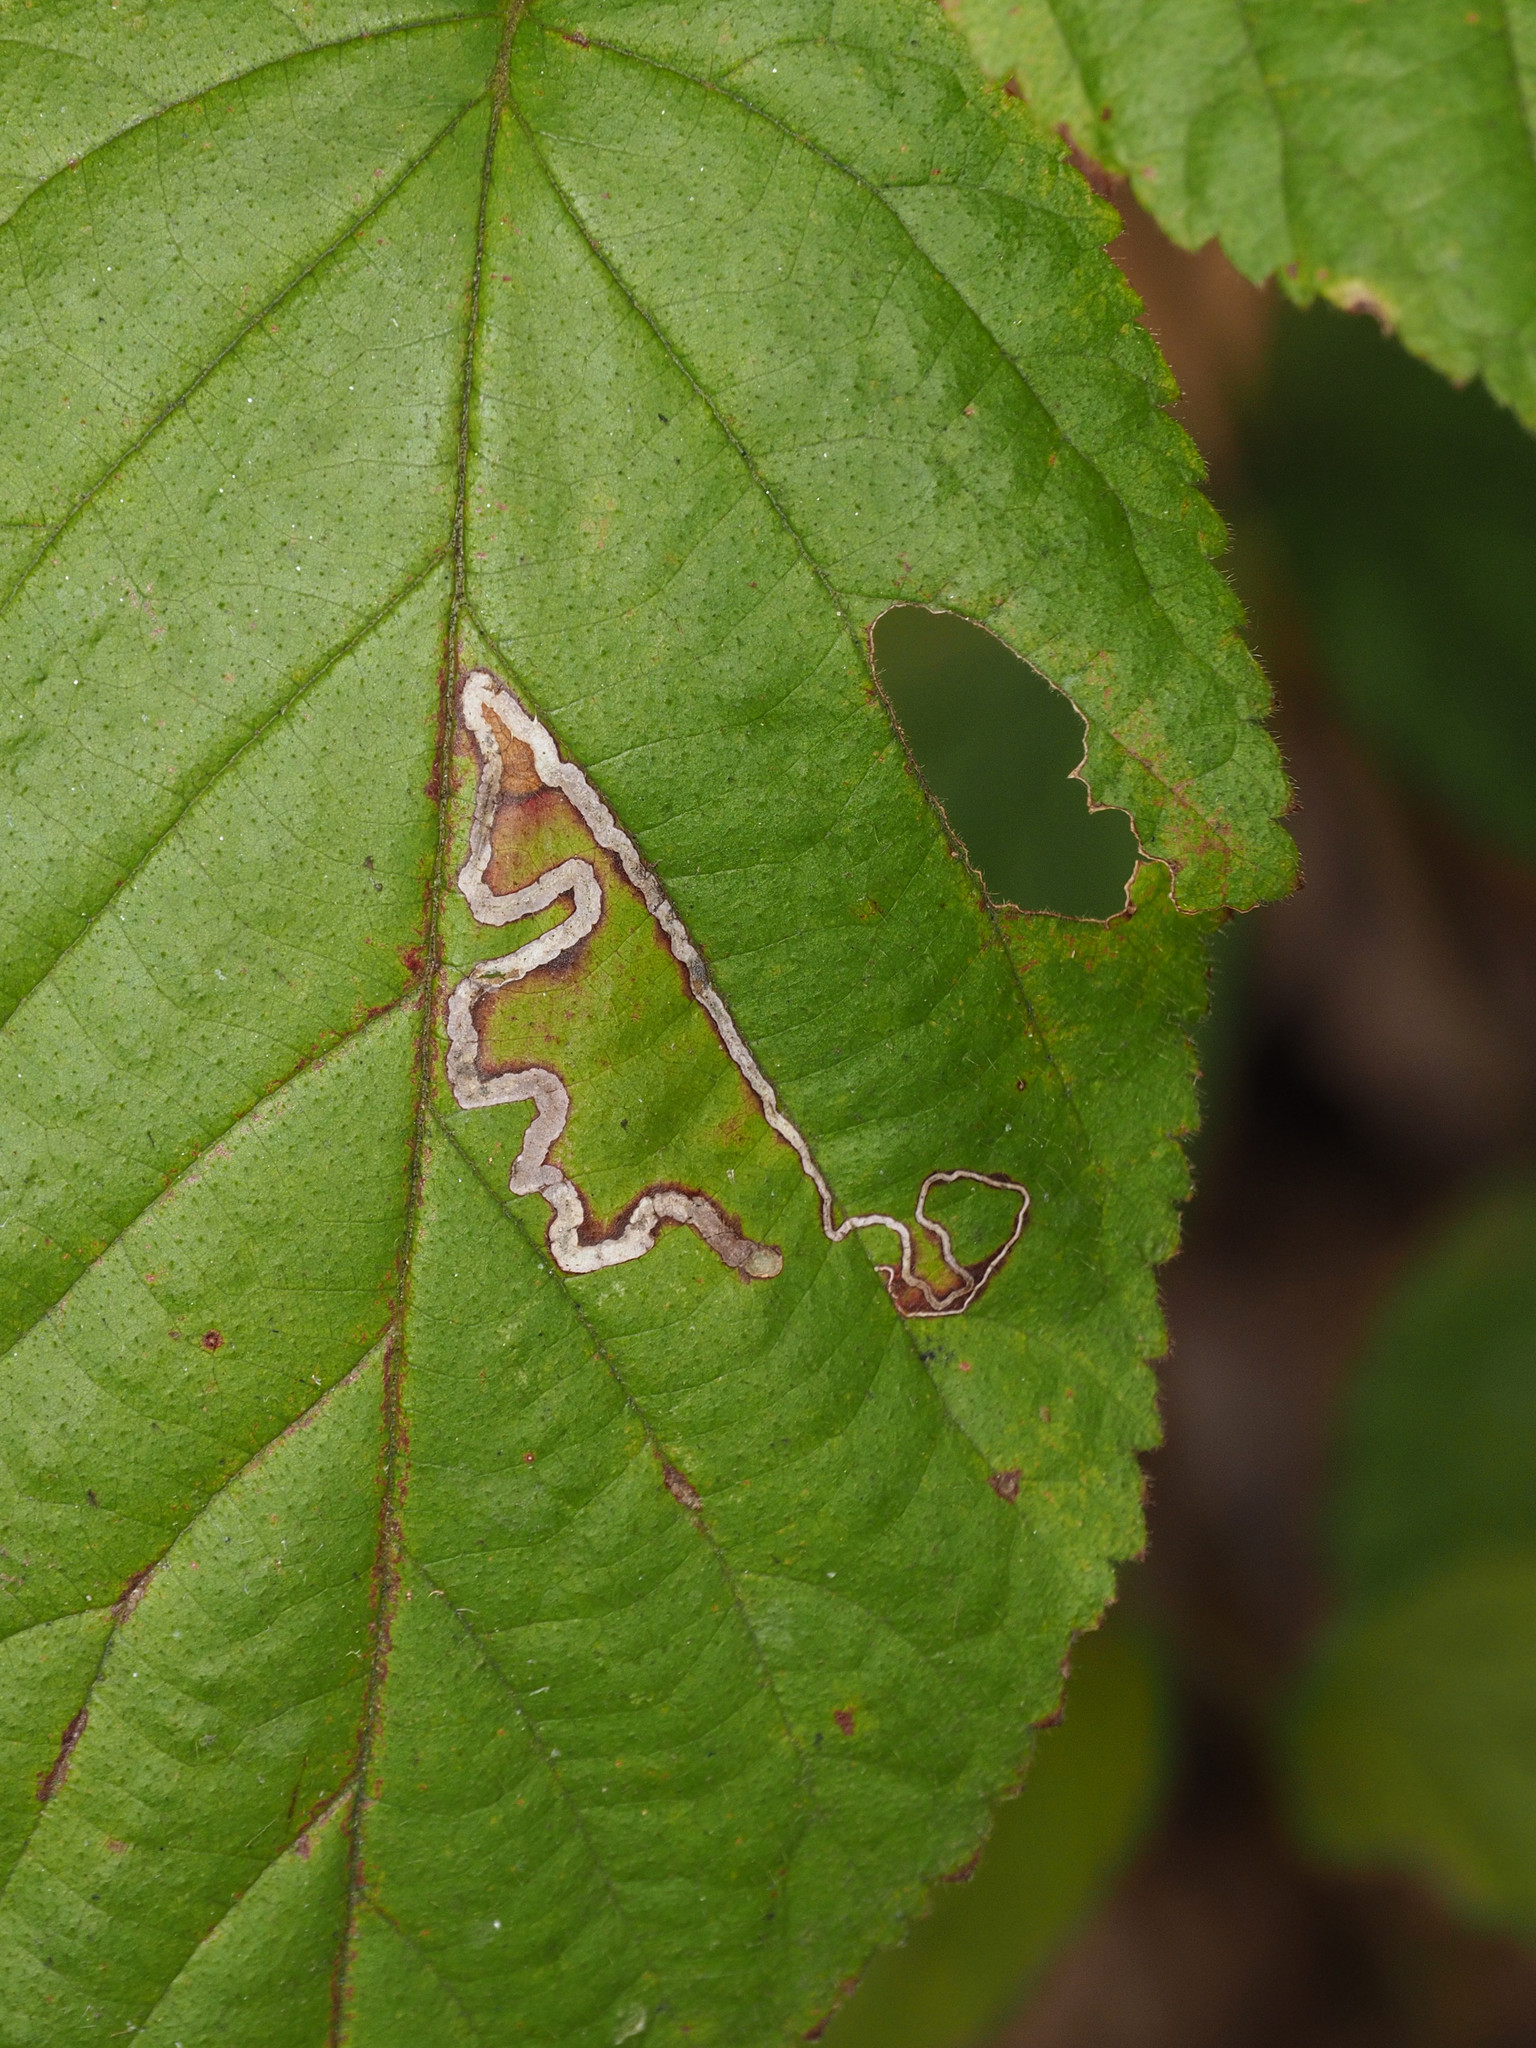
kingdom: Animalia
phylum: Arthropoda
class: Insecta
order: Lepidoptera
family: Nepticulidae
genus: Stigmella
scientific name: Stigmella villosella
